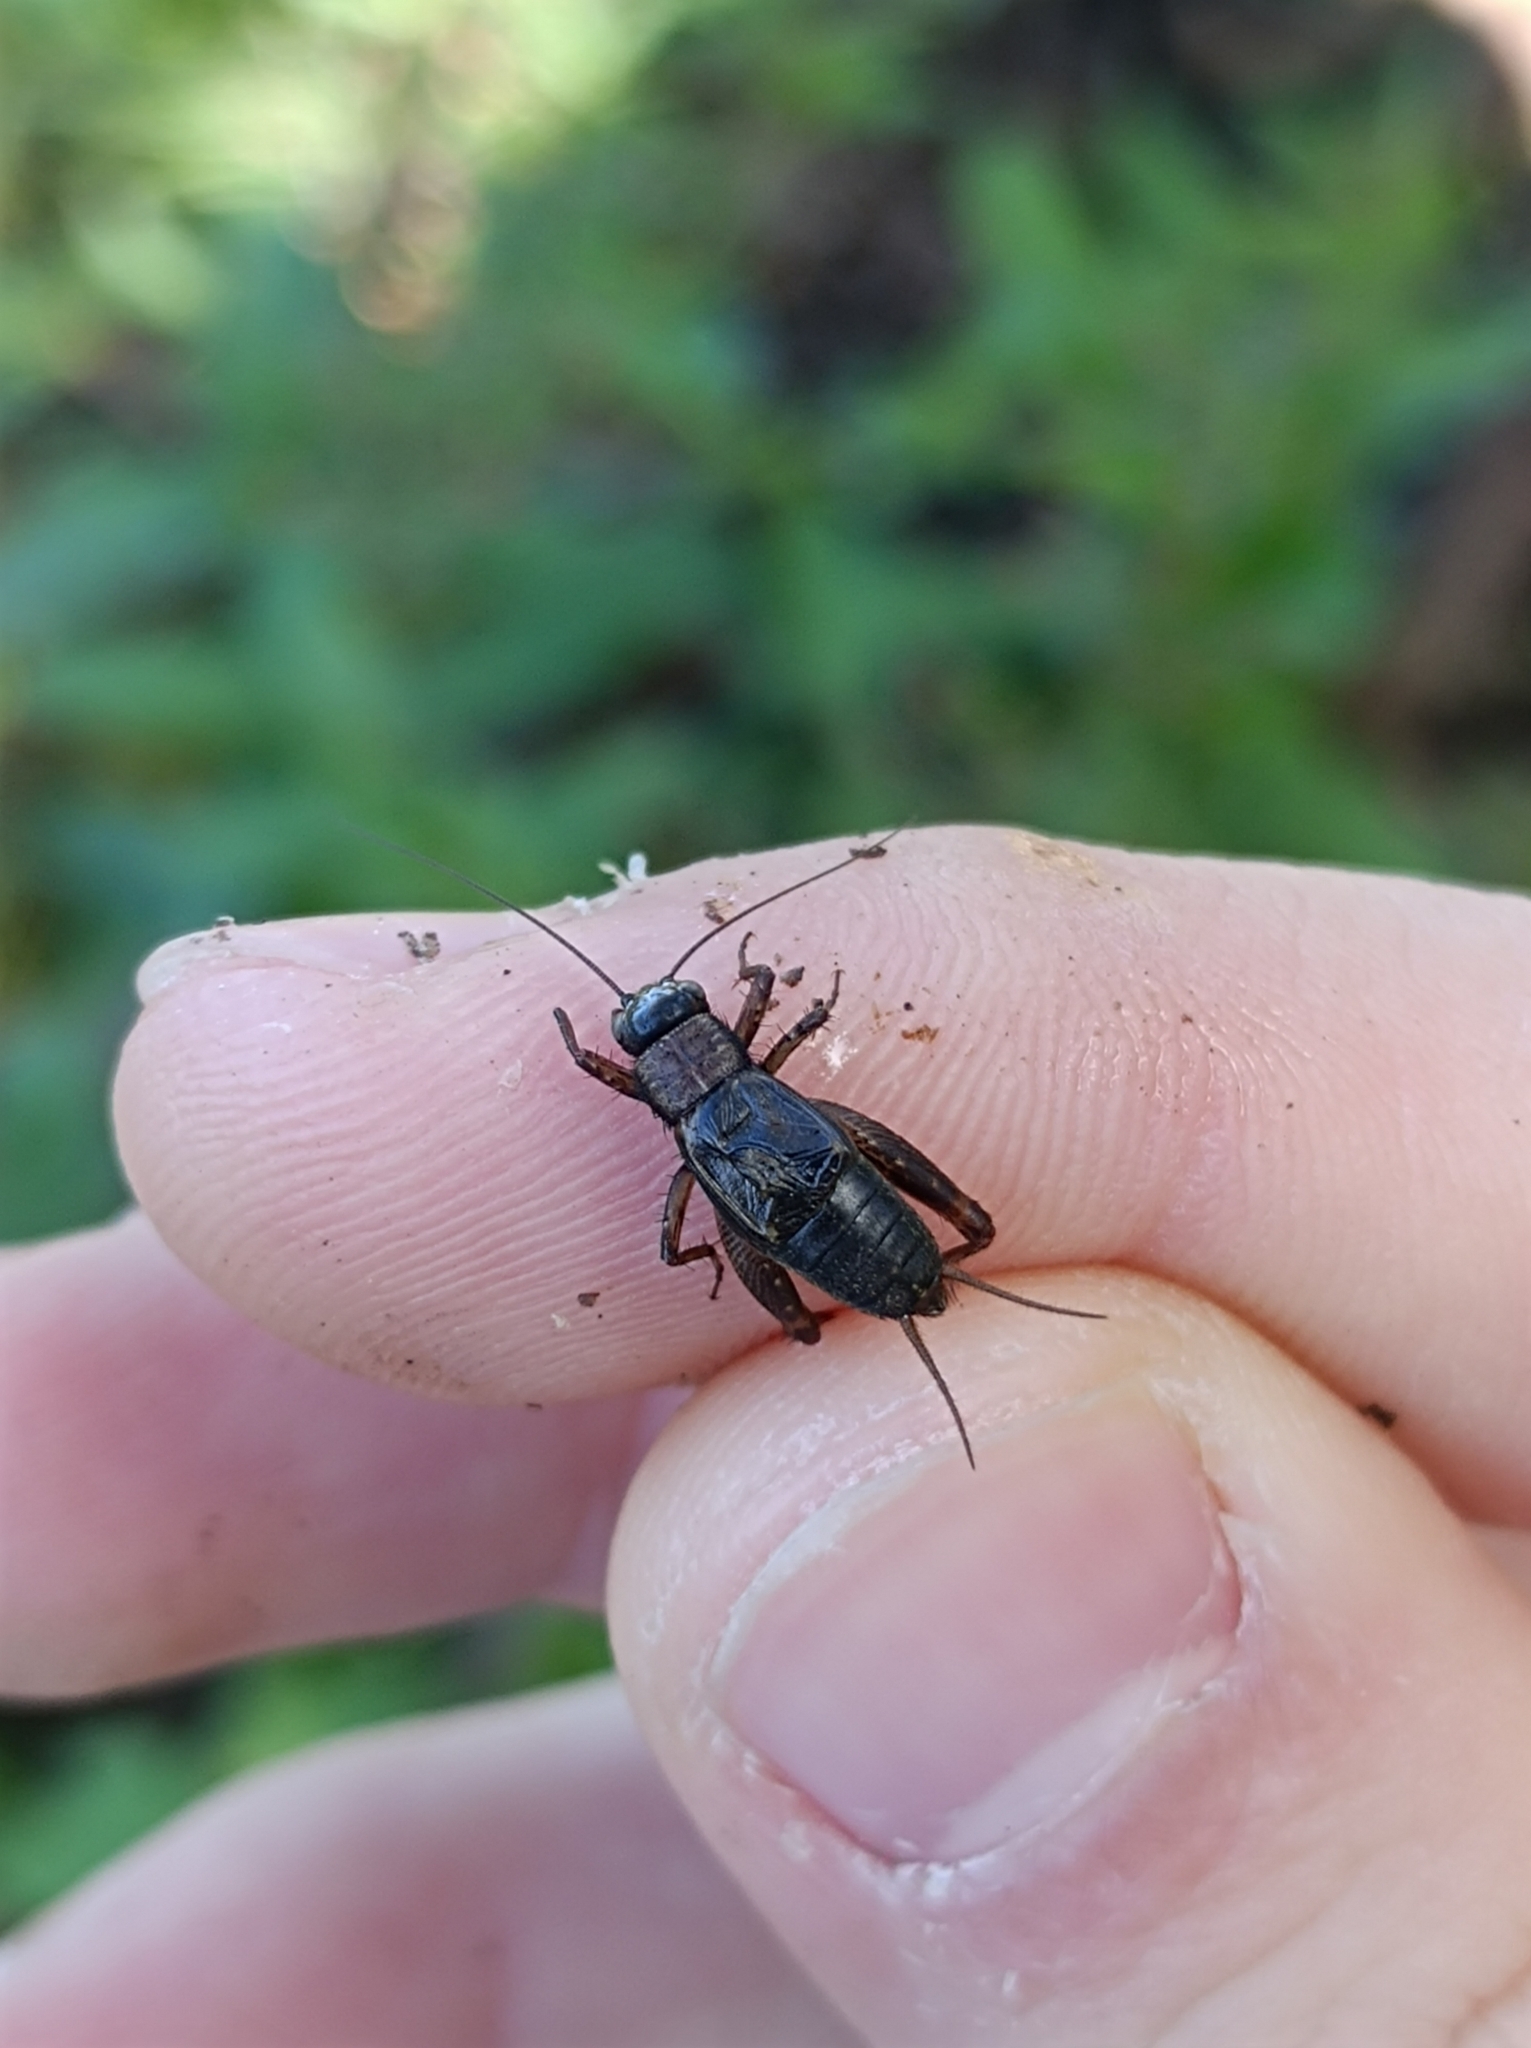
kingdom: Animalia
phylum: Arthropoda
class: Insecta
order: Orthoptera
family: Trigonidiidae
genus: Nemobius
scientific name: Nemobius sylvestris
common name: Wood-cricket
